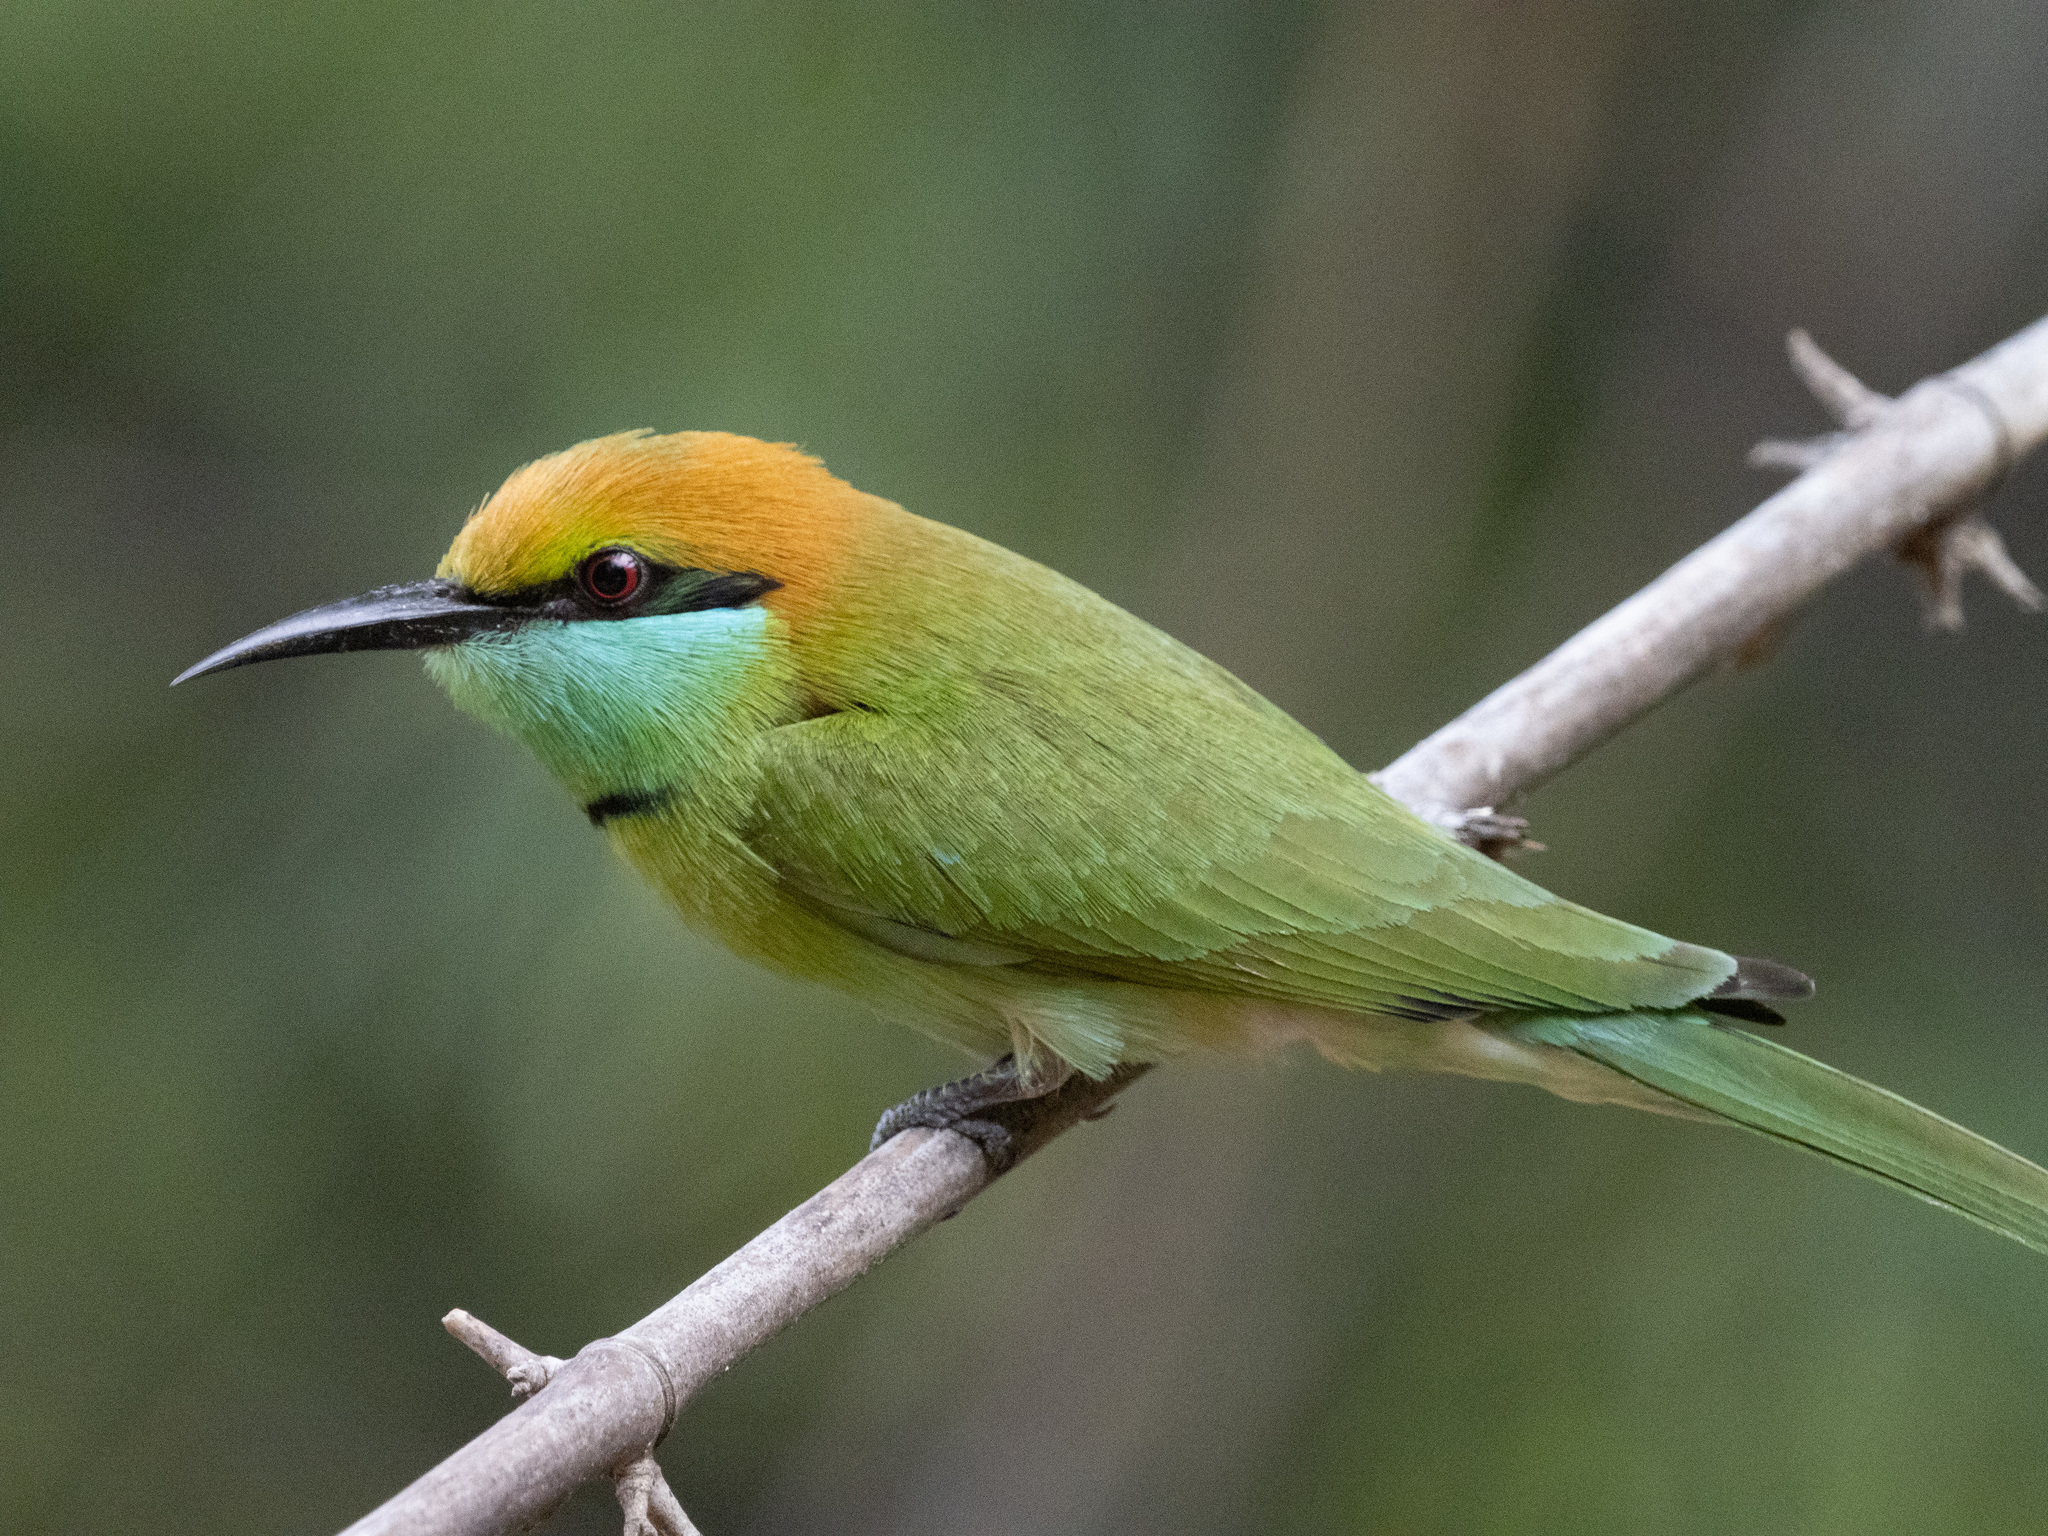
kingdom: Animalia
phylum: Chordata
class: Aves
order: Coraciiformes
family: Meropidae
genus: Merops
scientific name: Merops orientalis
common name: Green bee-eater
